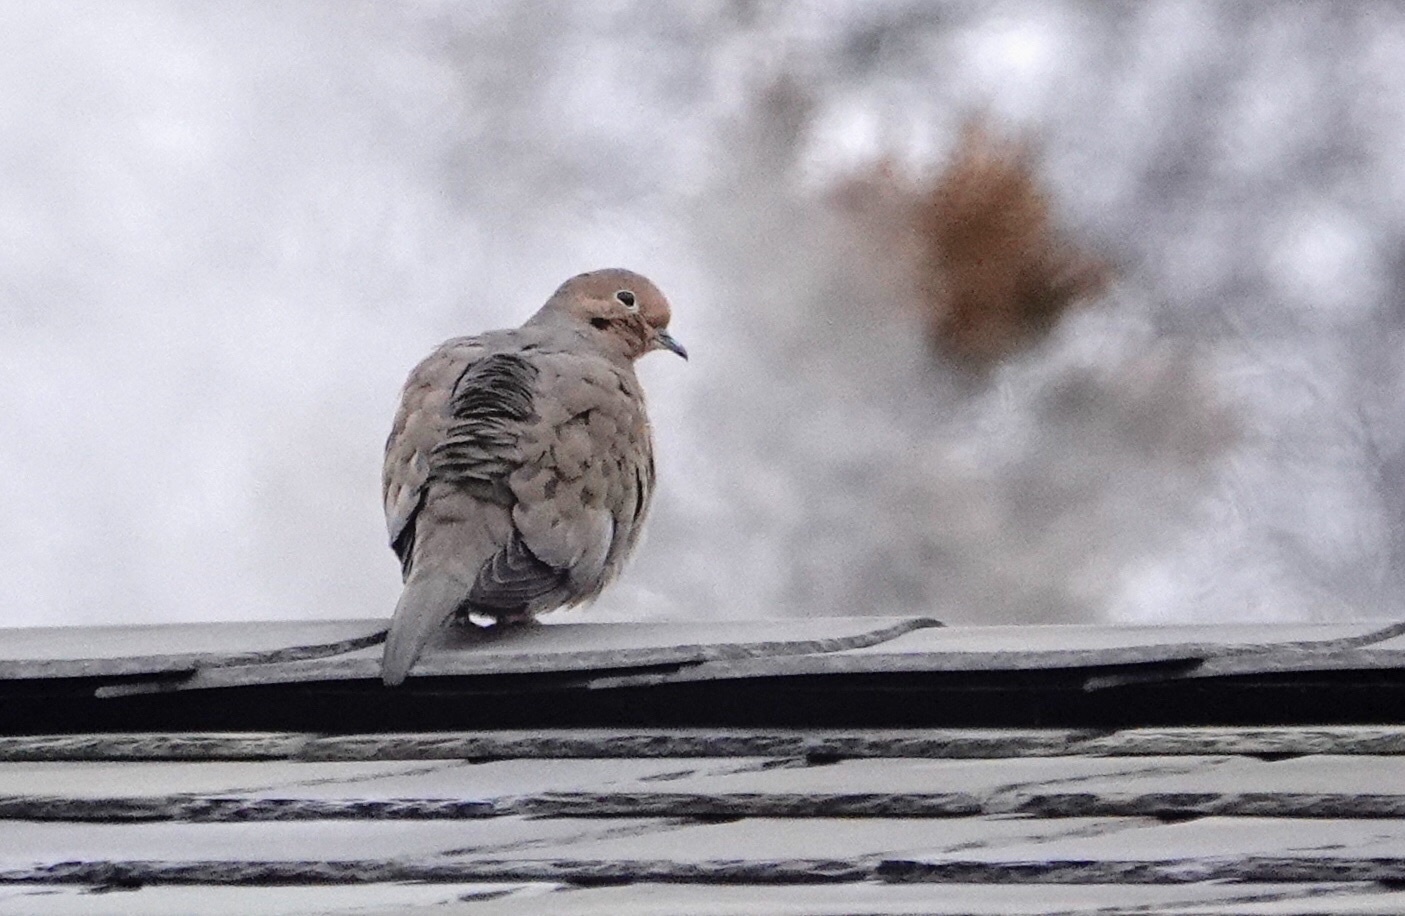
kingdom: Animalia
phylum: Chordata
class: Aves
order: Columbiformes
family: Columbidae
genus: Zenaida
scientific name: Zenaida macroura
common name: Mourning dove
